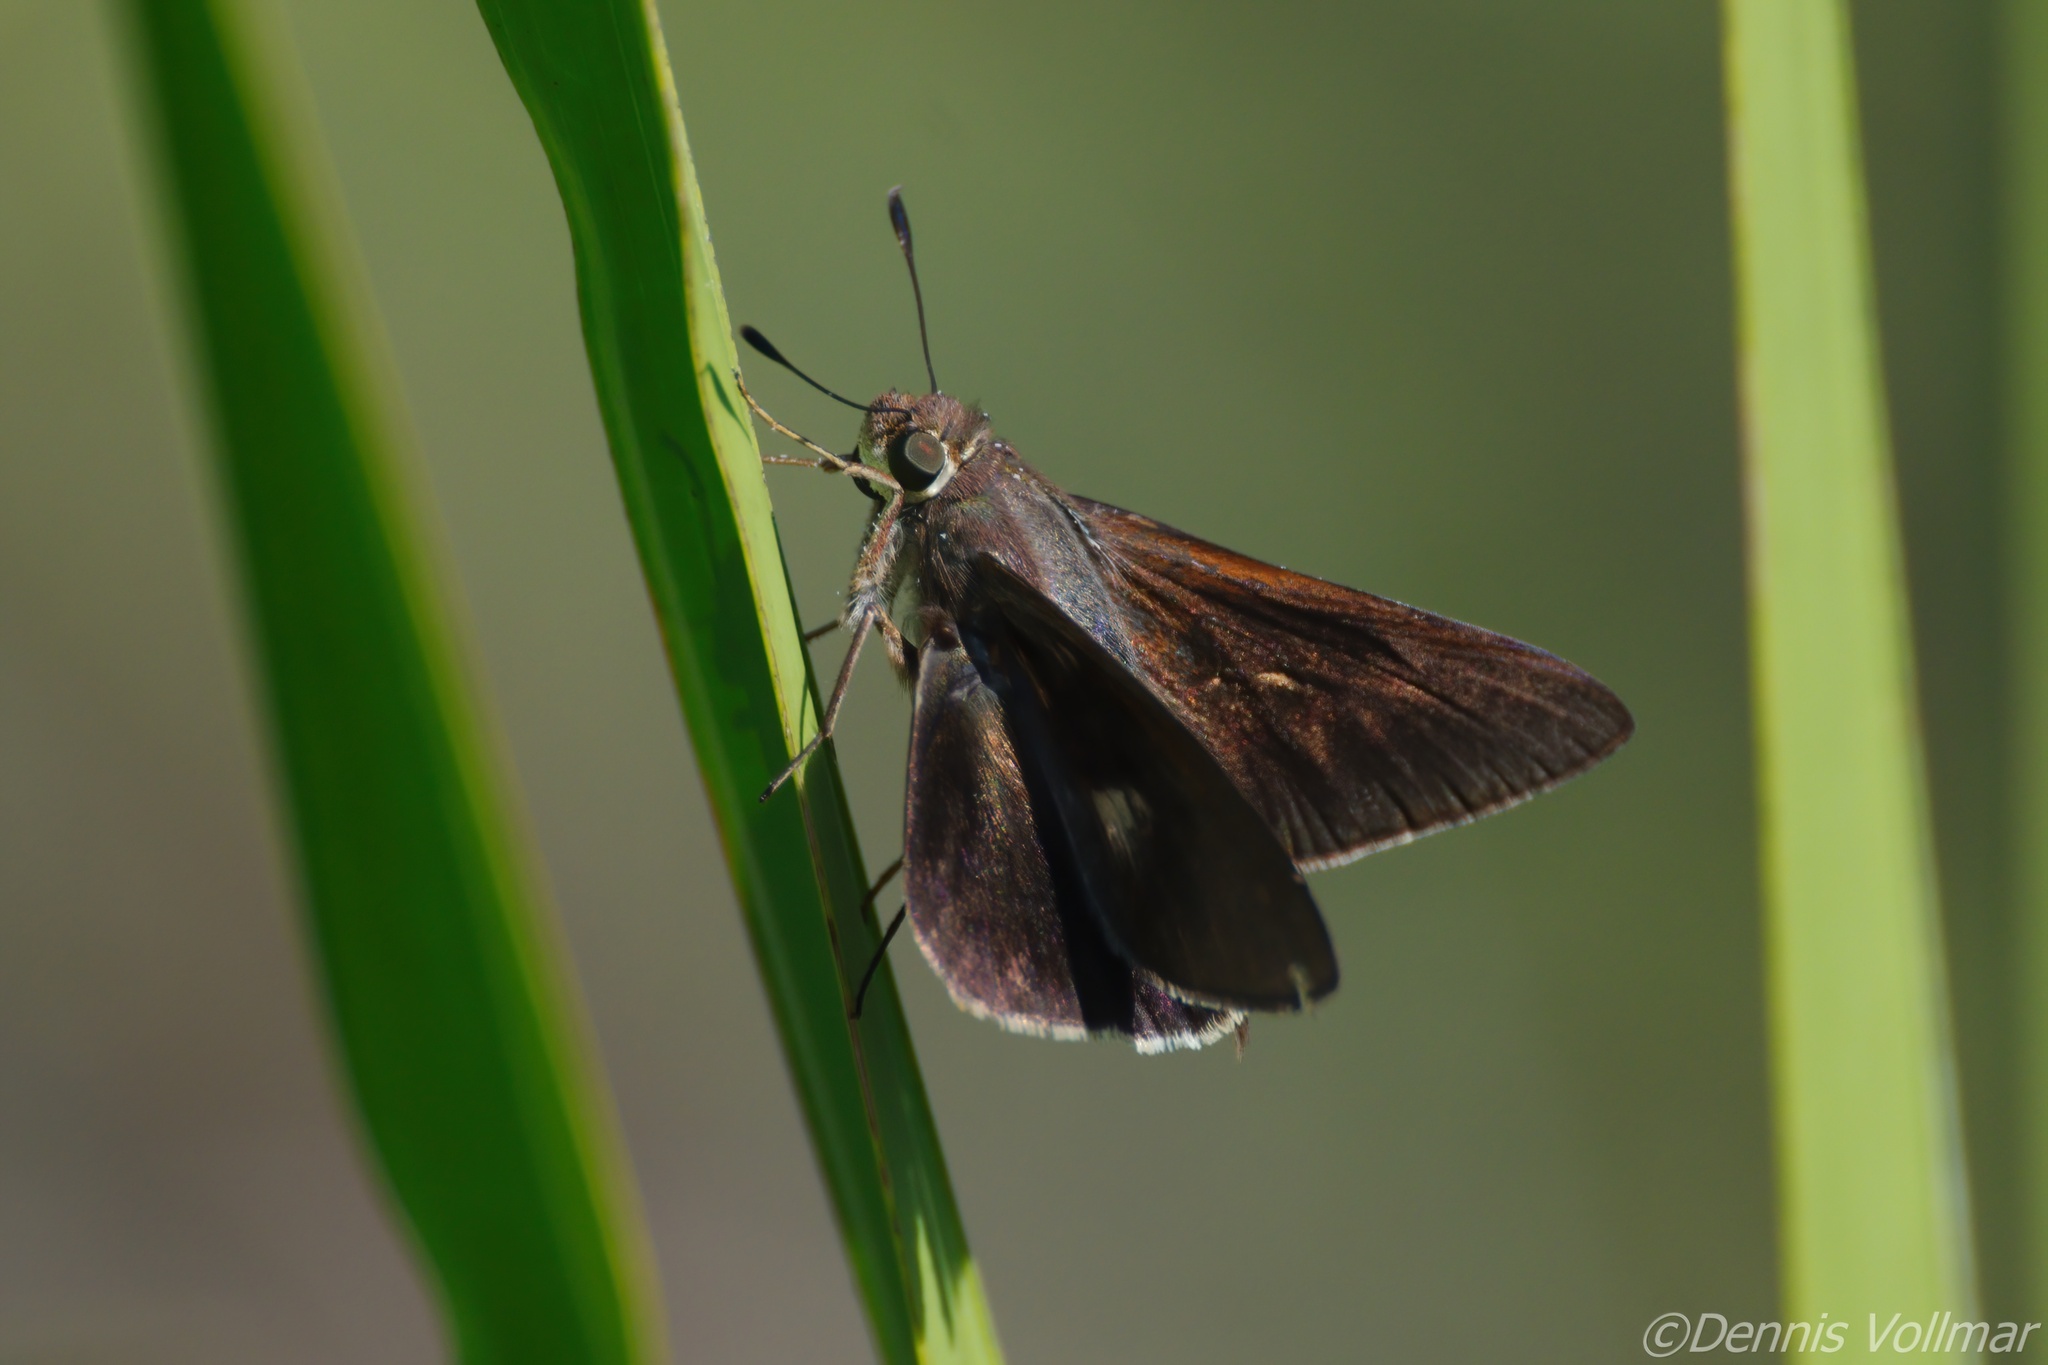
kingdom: Animalia
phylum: Arthropoda
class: Insecta
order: Lepidoptera
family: Hesperiidae
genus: Asbolis
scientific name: Asbolis capucinus
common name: Monk skipper
